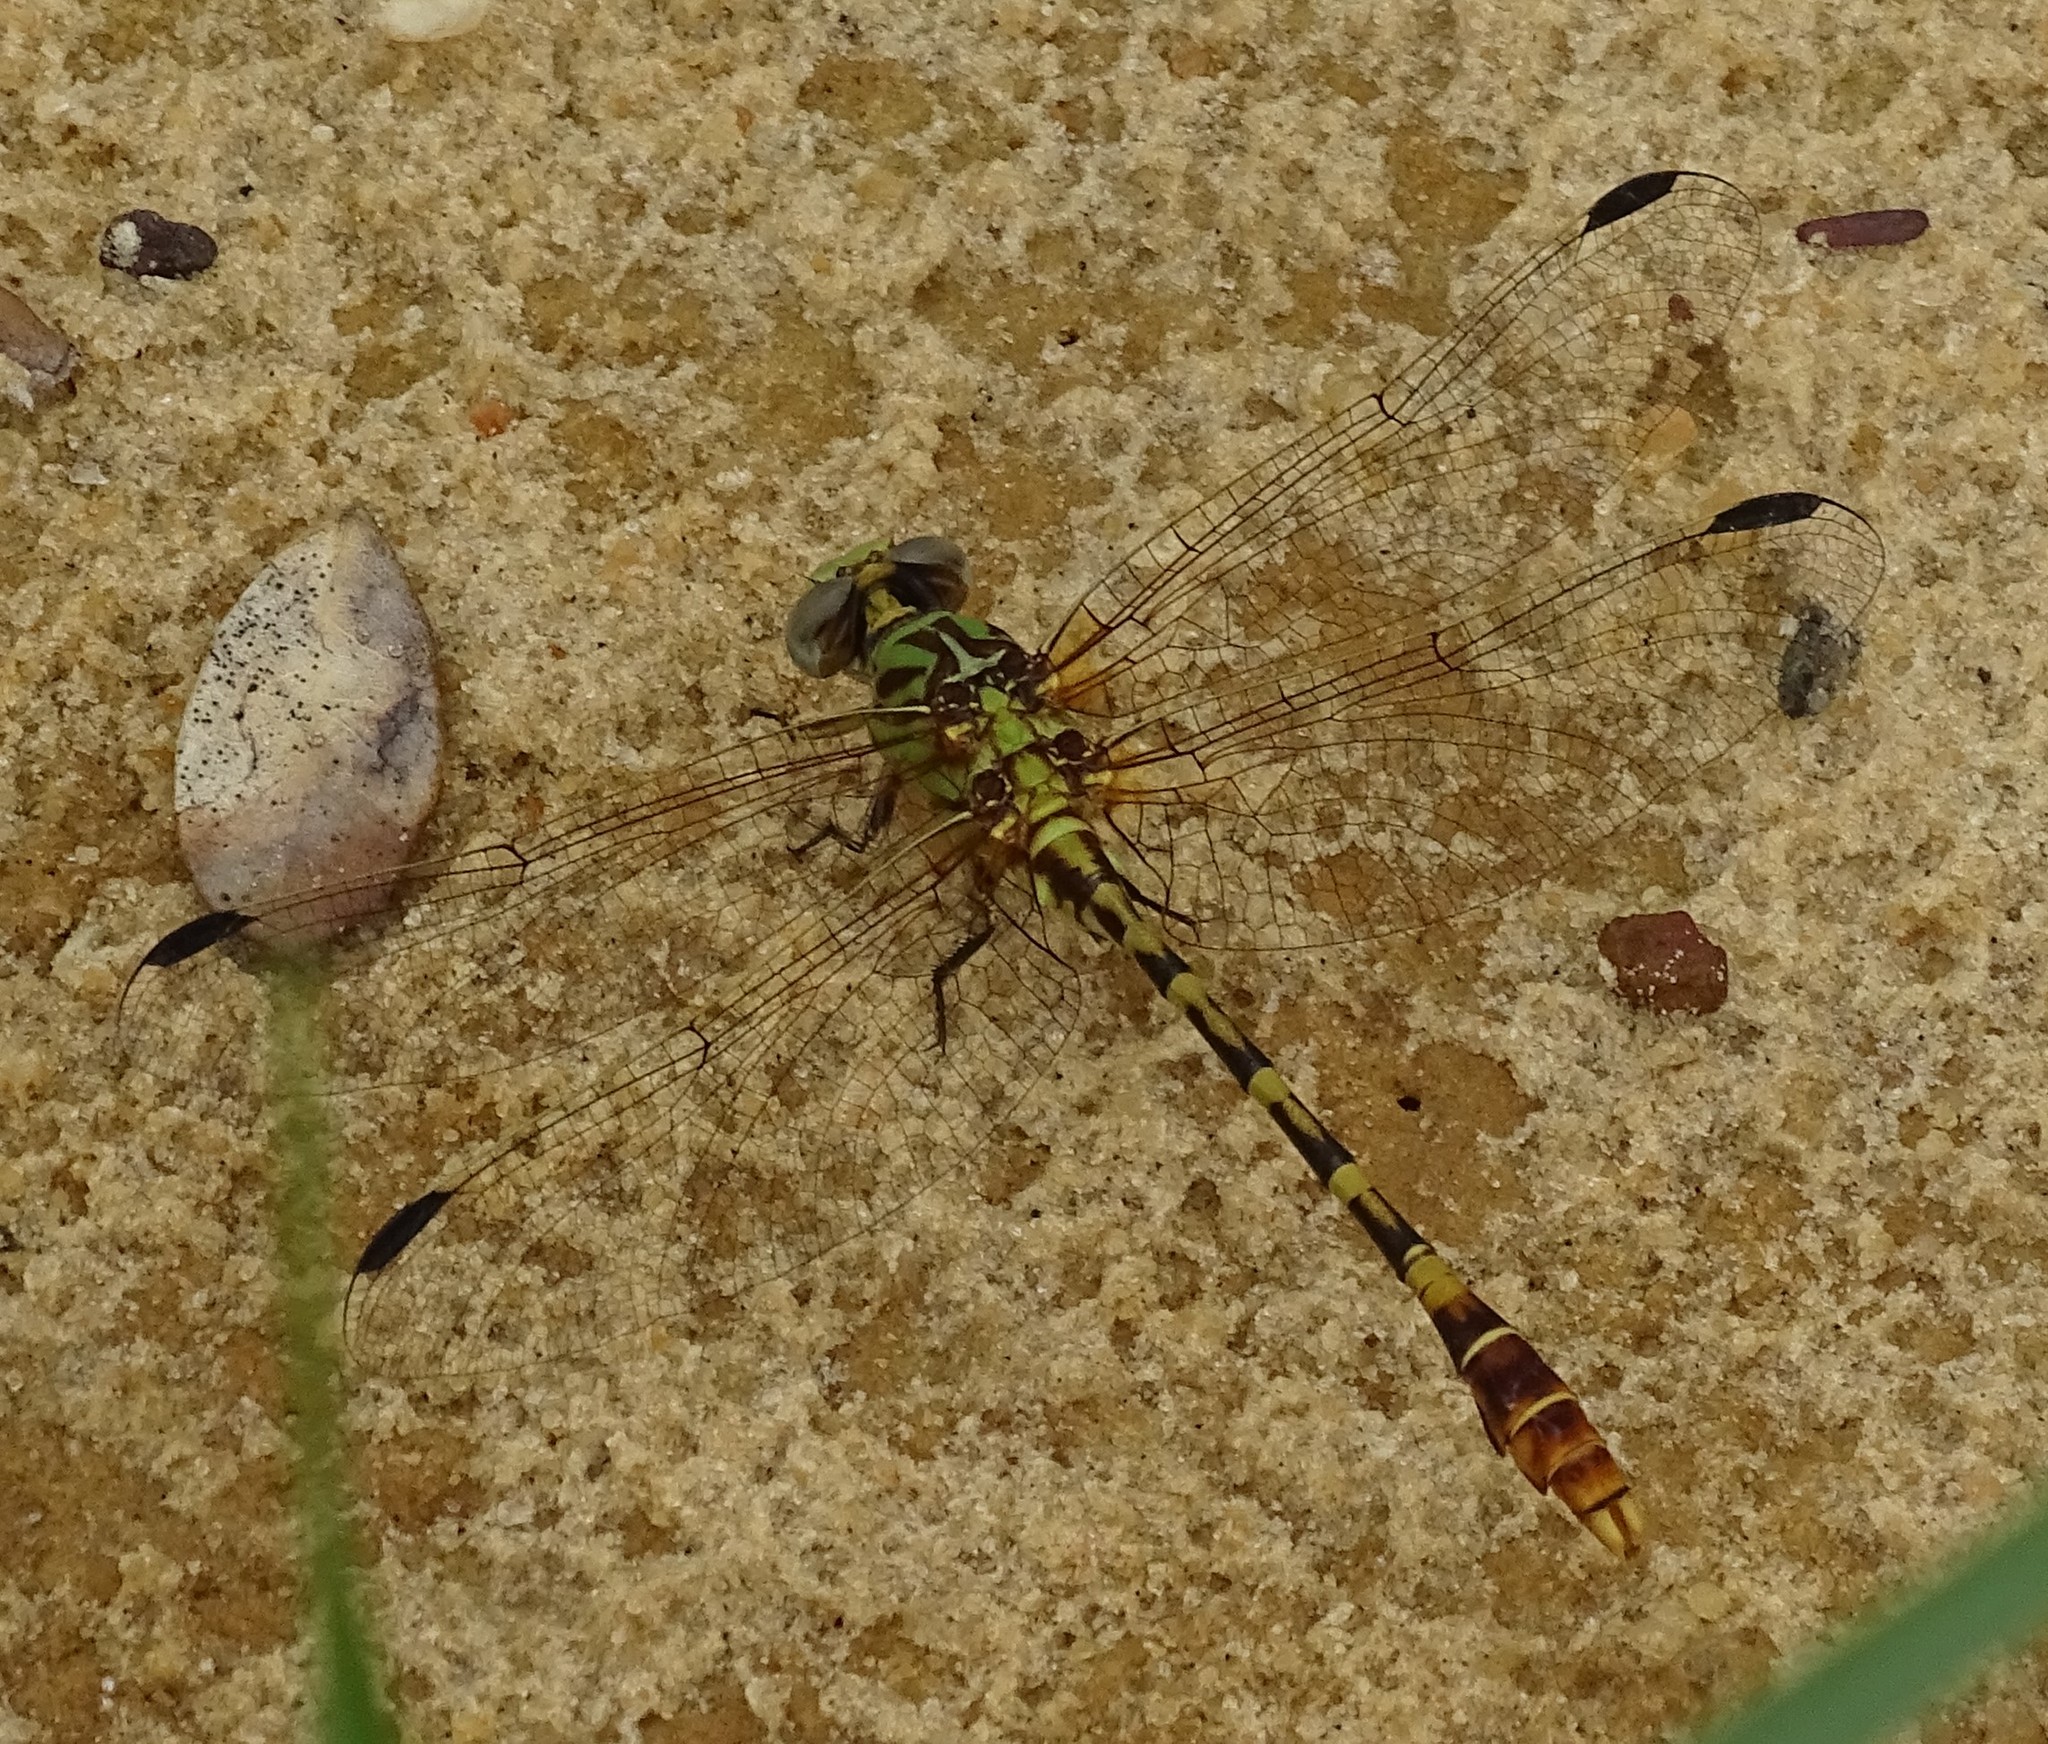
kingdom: Animalia
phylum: Arthropoda
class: Insecta
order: Odonata
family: Gomphidae
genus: Erpetogomphus
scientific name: Erpetogomphus designatus
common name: Eastern ringtail
